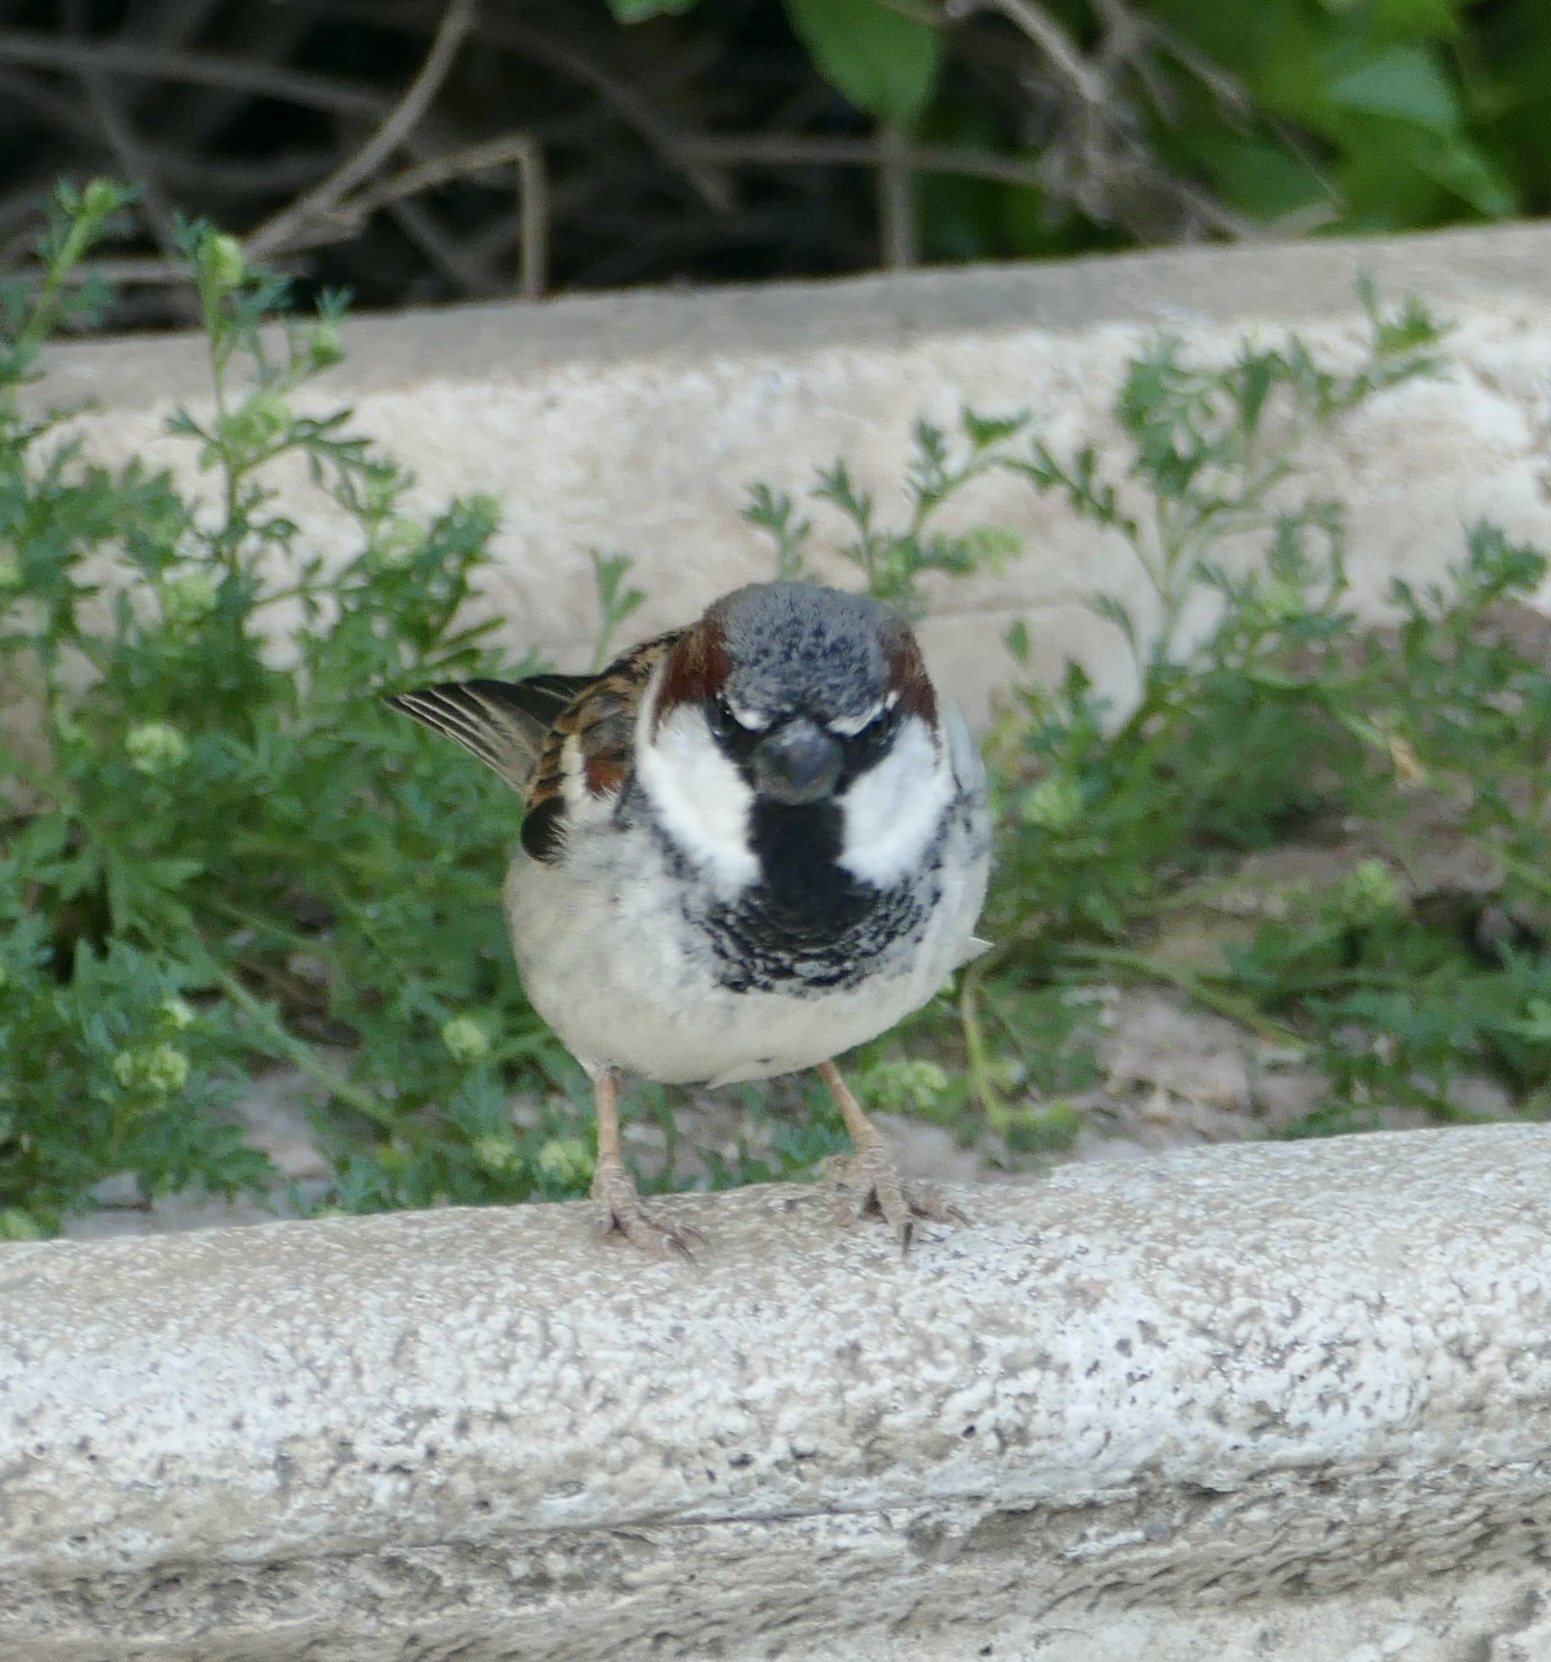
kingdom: Animalia
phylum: Chordata
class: Aves
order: Passeriformes
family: Passeridae
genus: Passer
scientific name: Passer domesticus
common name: House sparrow
